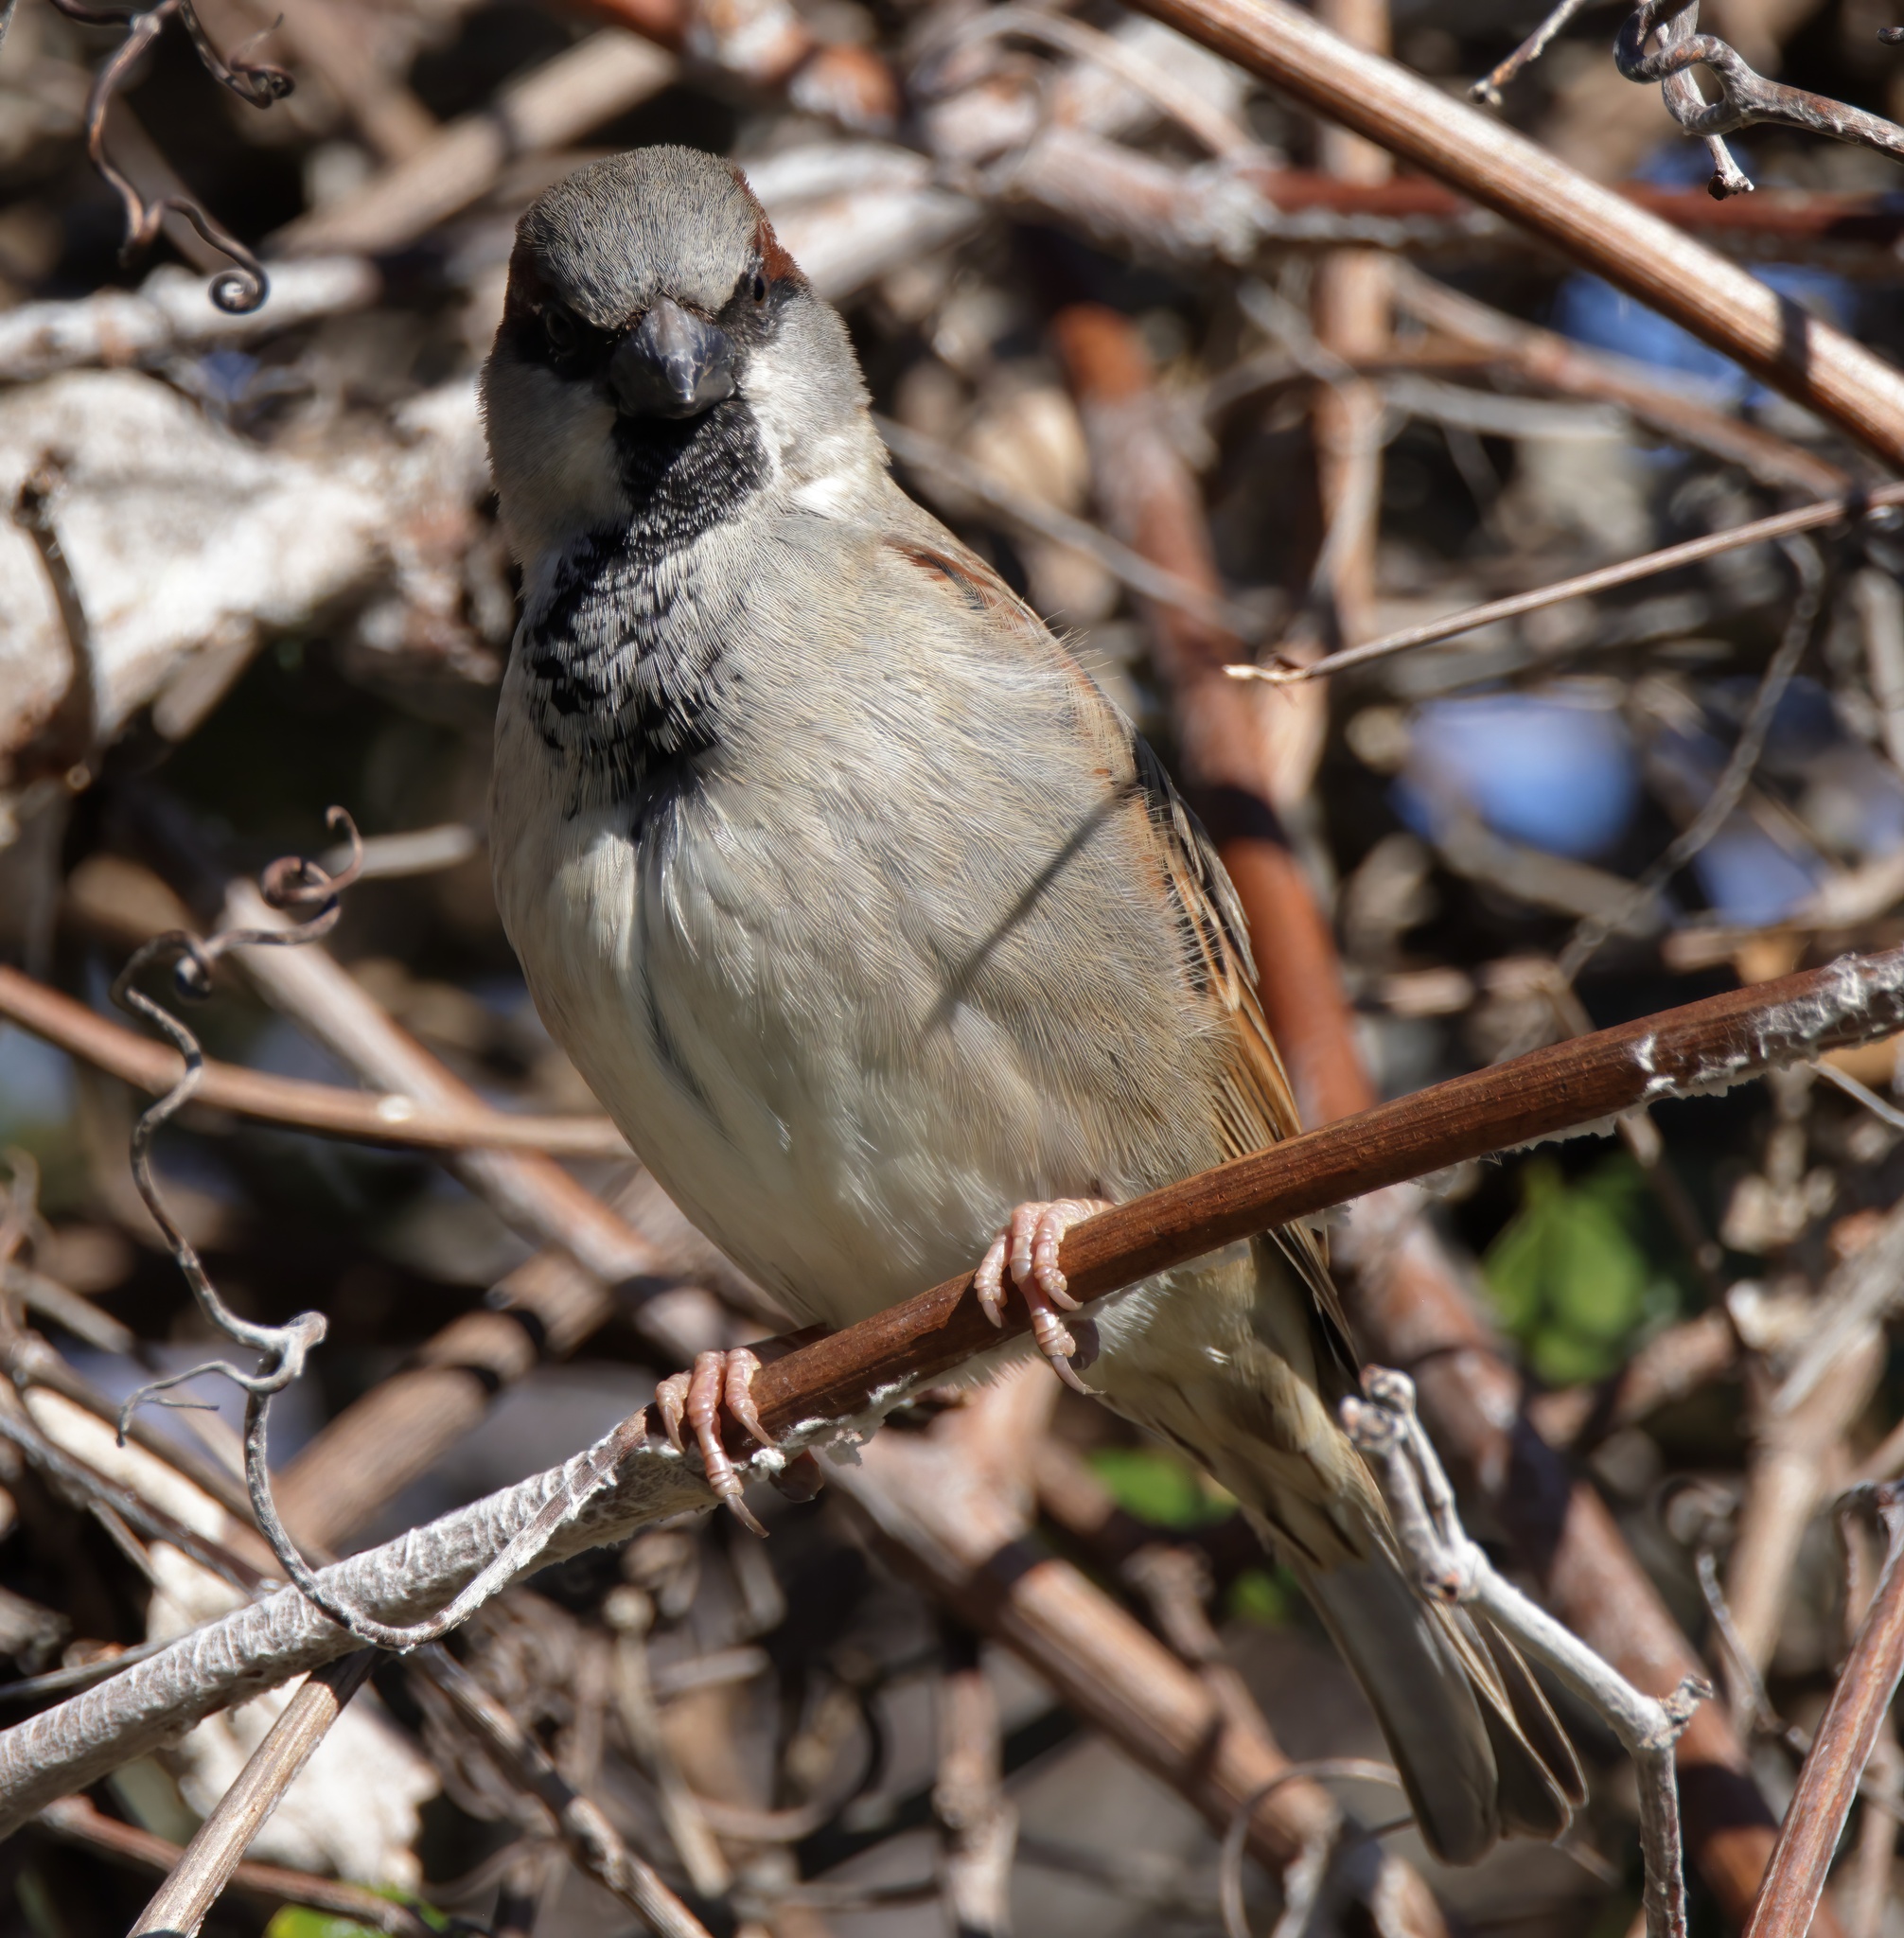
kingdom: Animalia
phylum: Chordata
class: Aves
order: Passeriformes
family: Passeridae
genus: Passer
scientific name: Passer domesticus
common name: House sparrow
